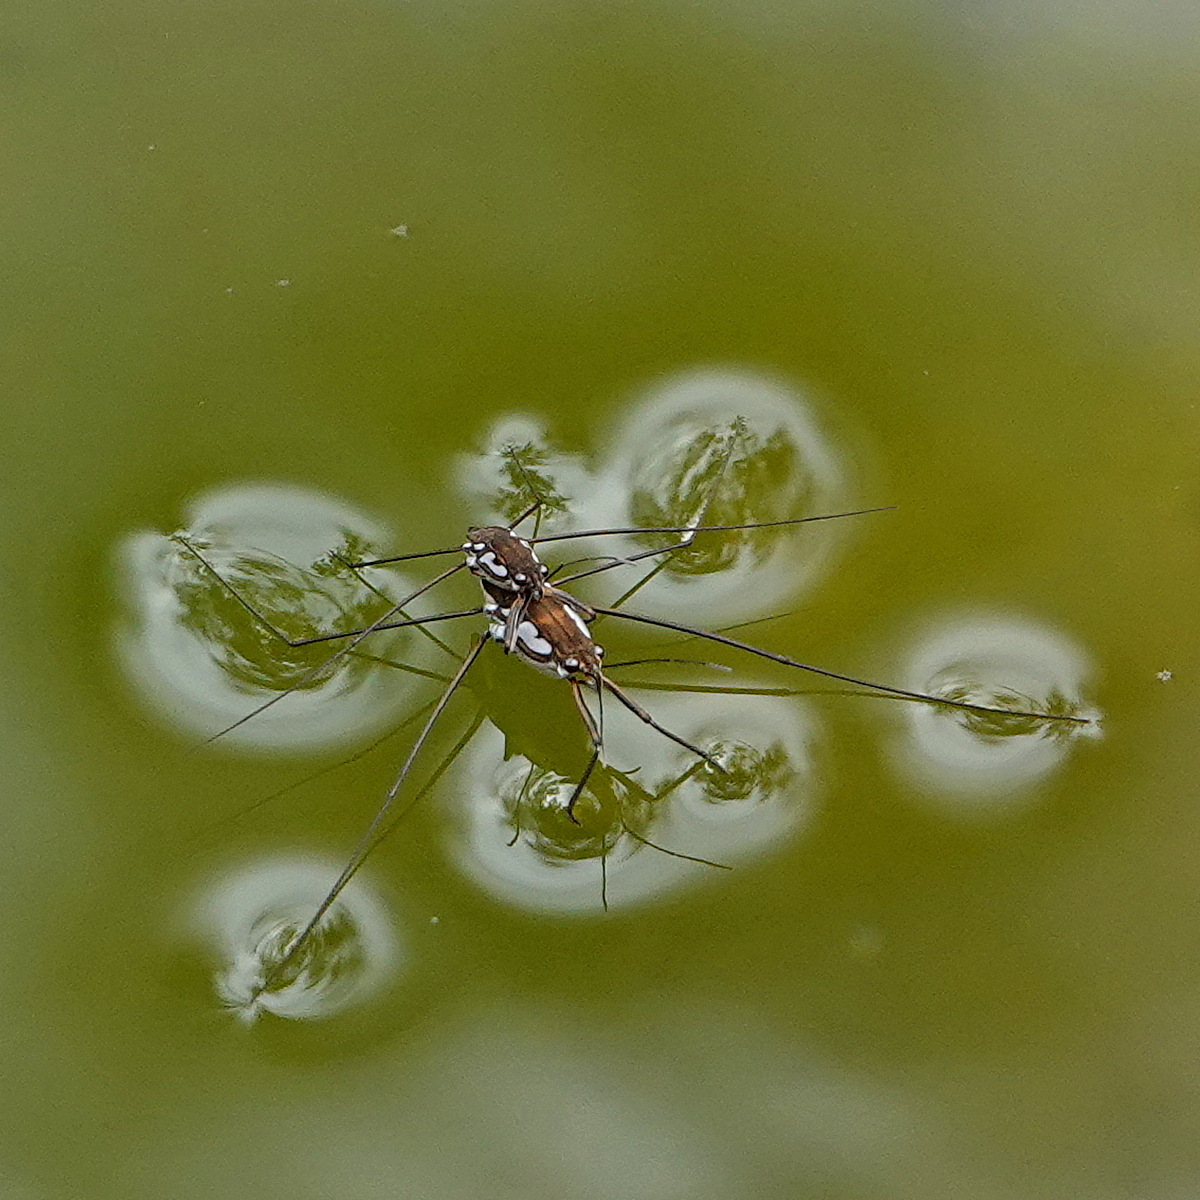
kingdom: Animalia
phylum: Arthropoda
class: Insecta
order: Hemiptera
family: Gerridae
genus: Tenagogerris
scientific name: Tenagogerris euphrosyne
